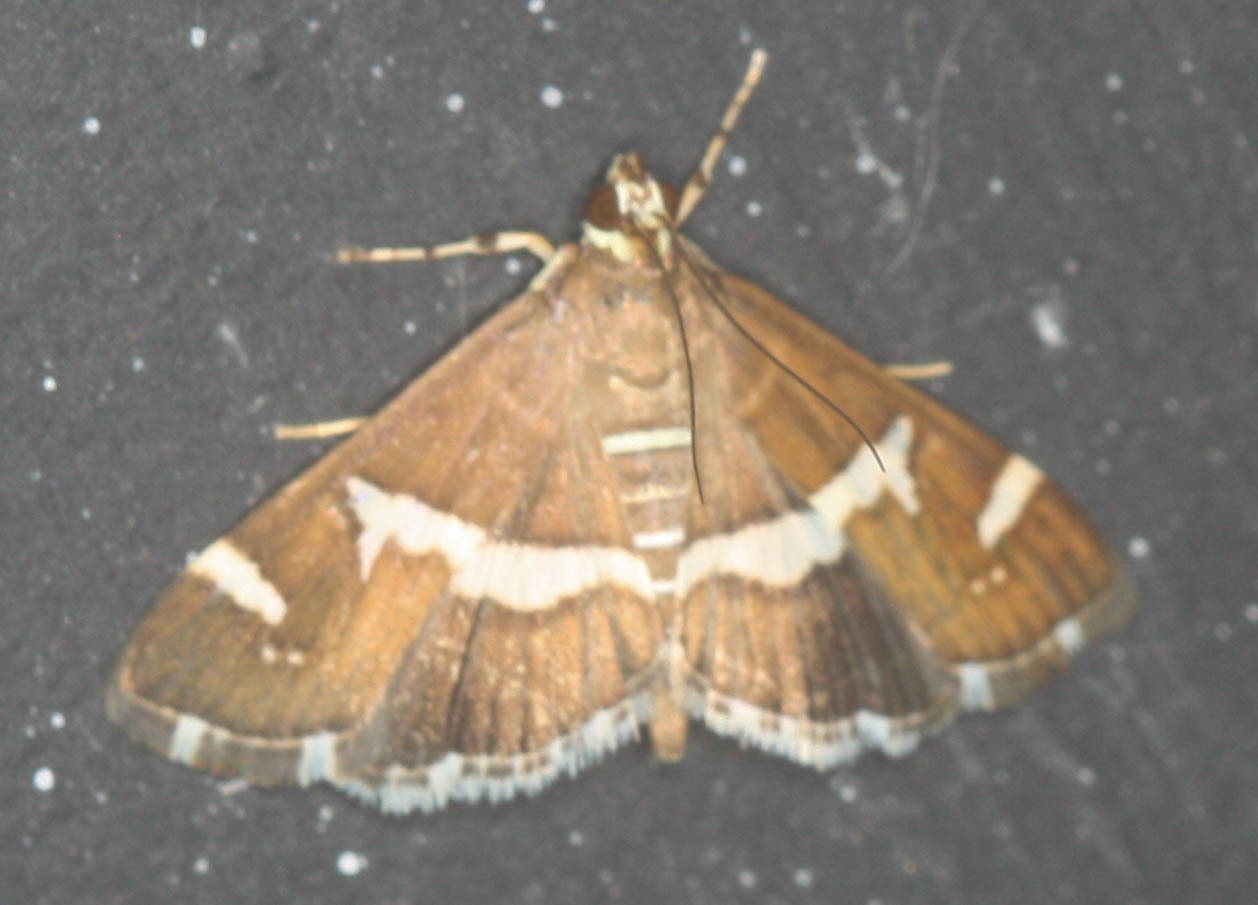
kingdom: Animalia
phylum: Arthropoda
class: Insecta
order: Lepidoptera
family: Crambidae
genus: Spoladea
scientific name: Spoladea recurvalis
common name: Beet webworm moth
